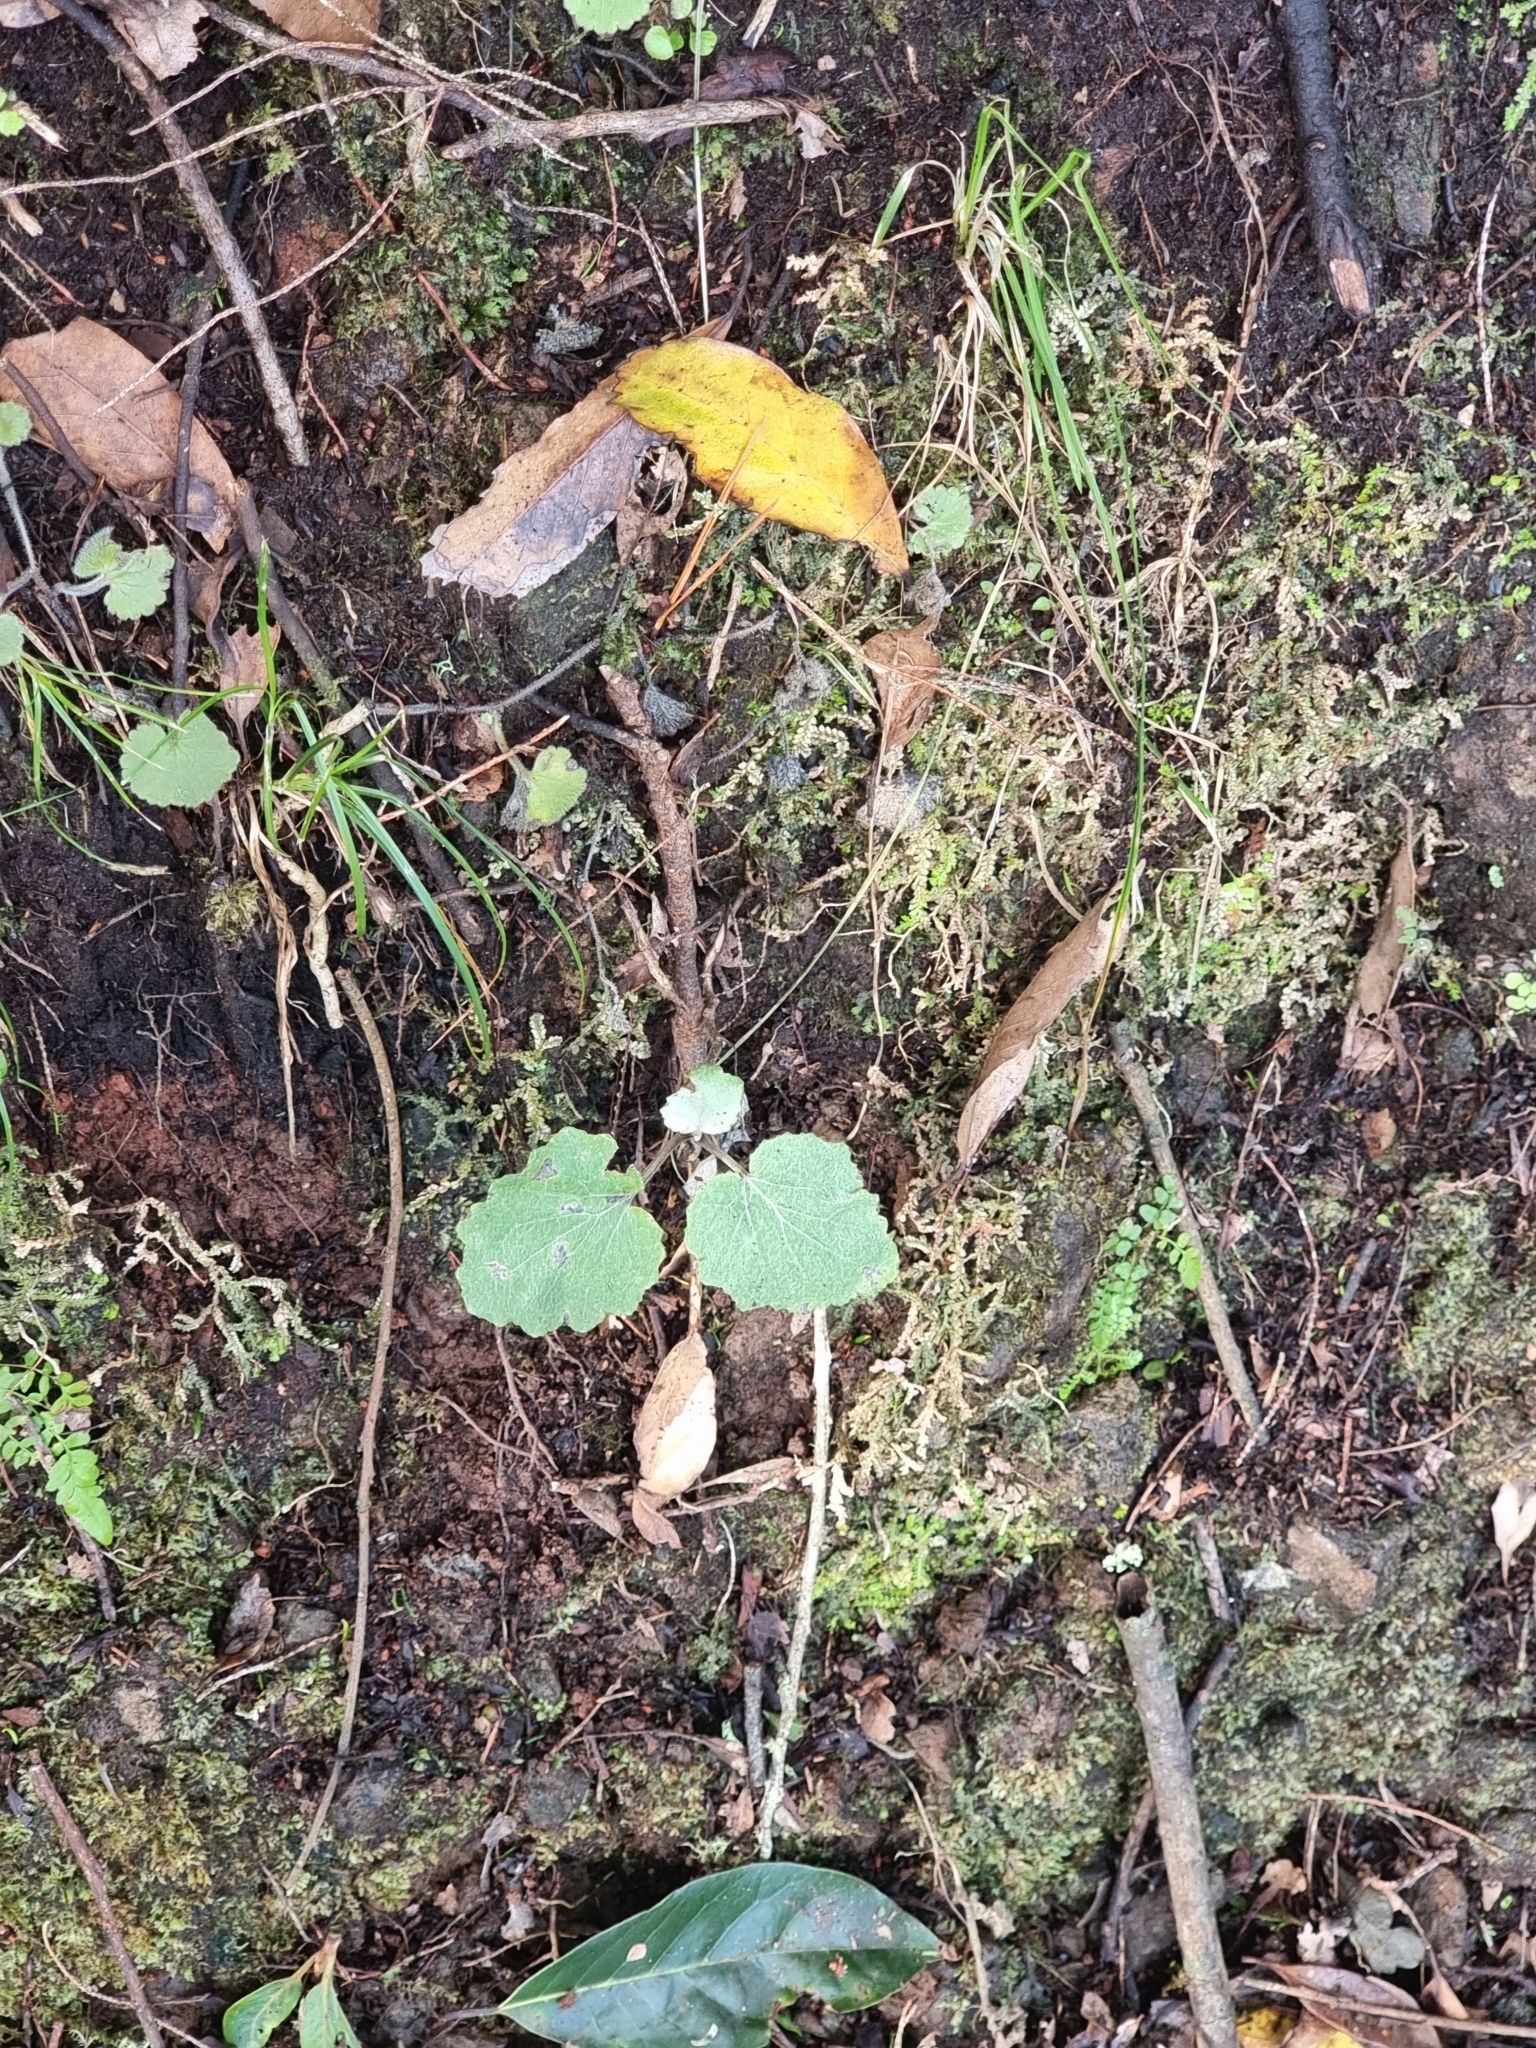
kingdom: Plantae
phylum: Tracheophyta
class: Magnoliopsida
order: Asterales
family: Asteraceae
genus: Pericallis
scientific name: Pericallis aurita
